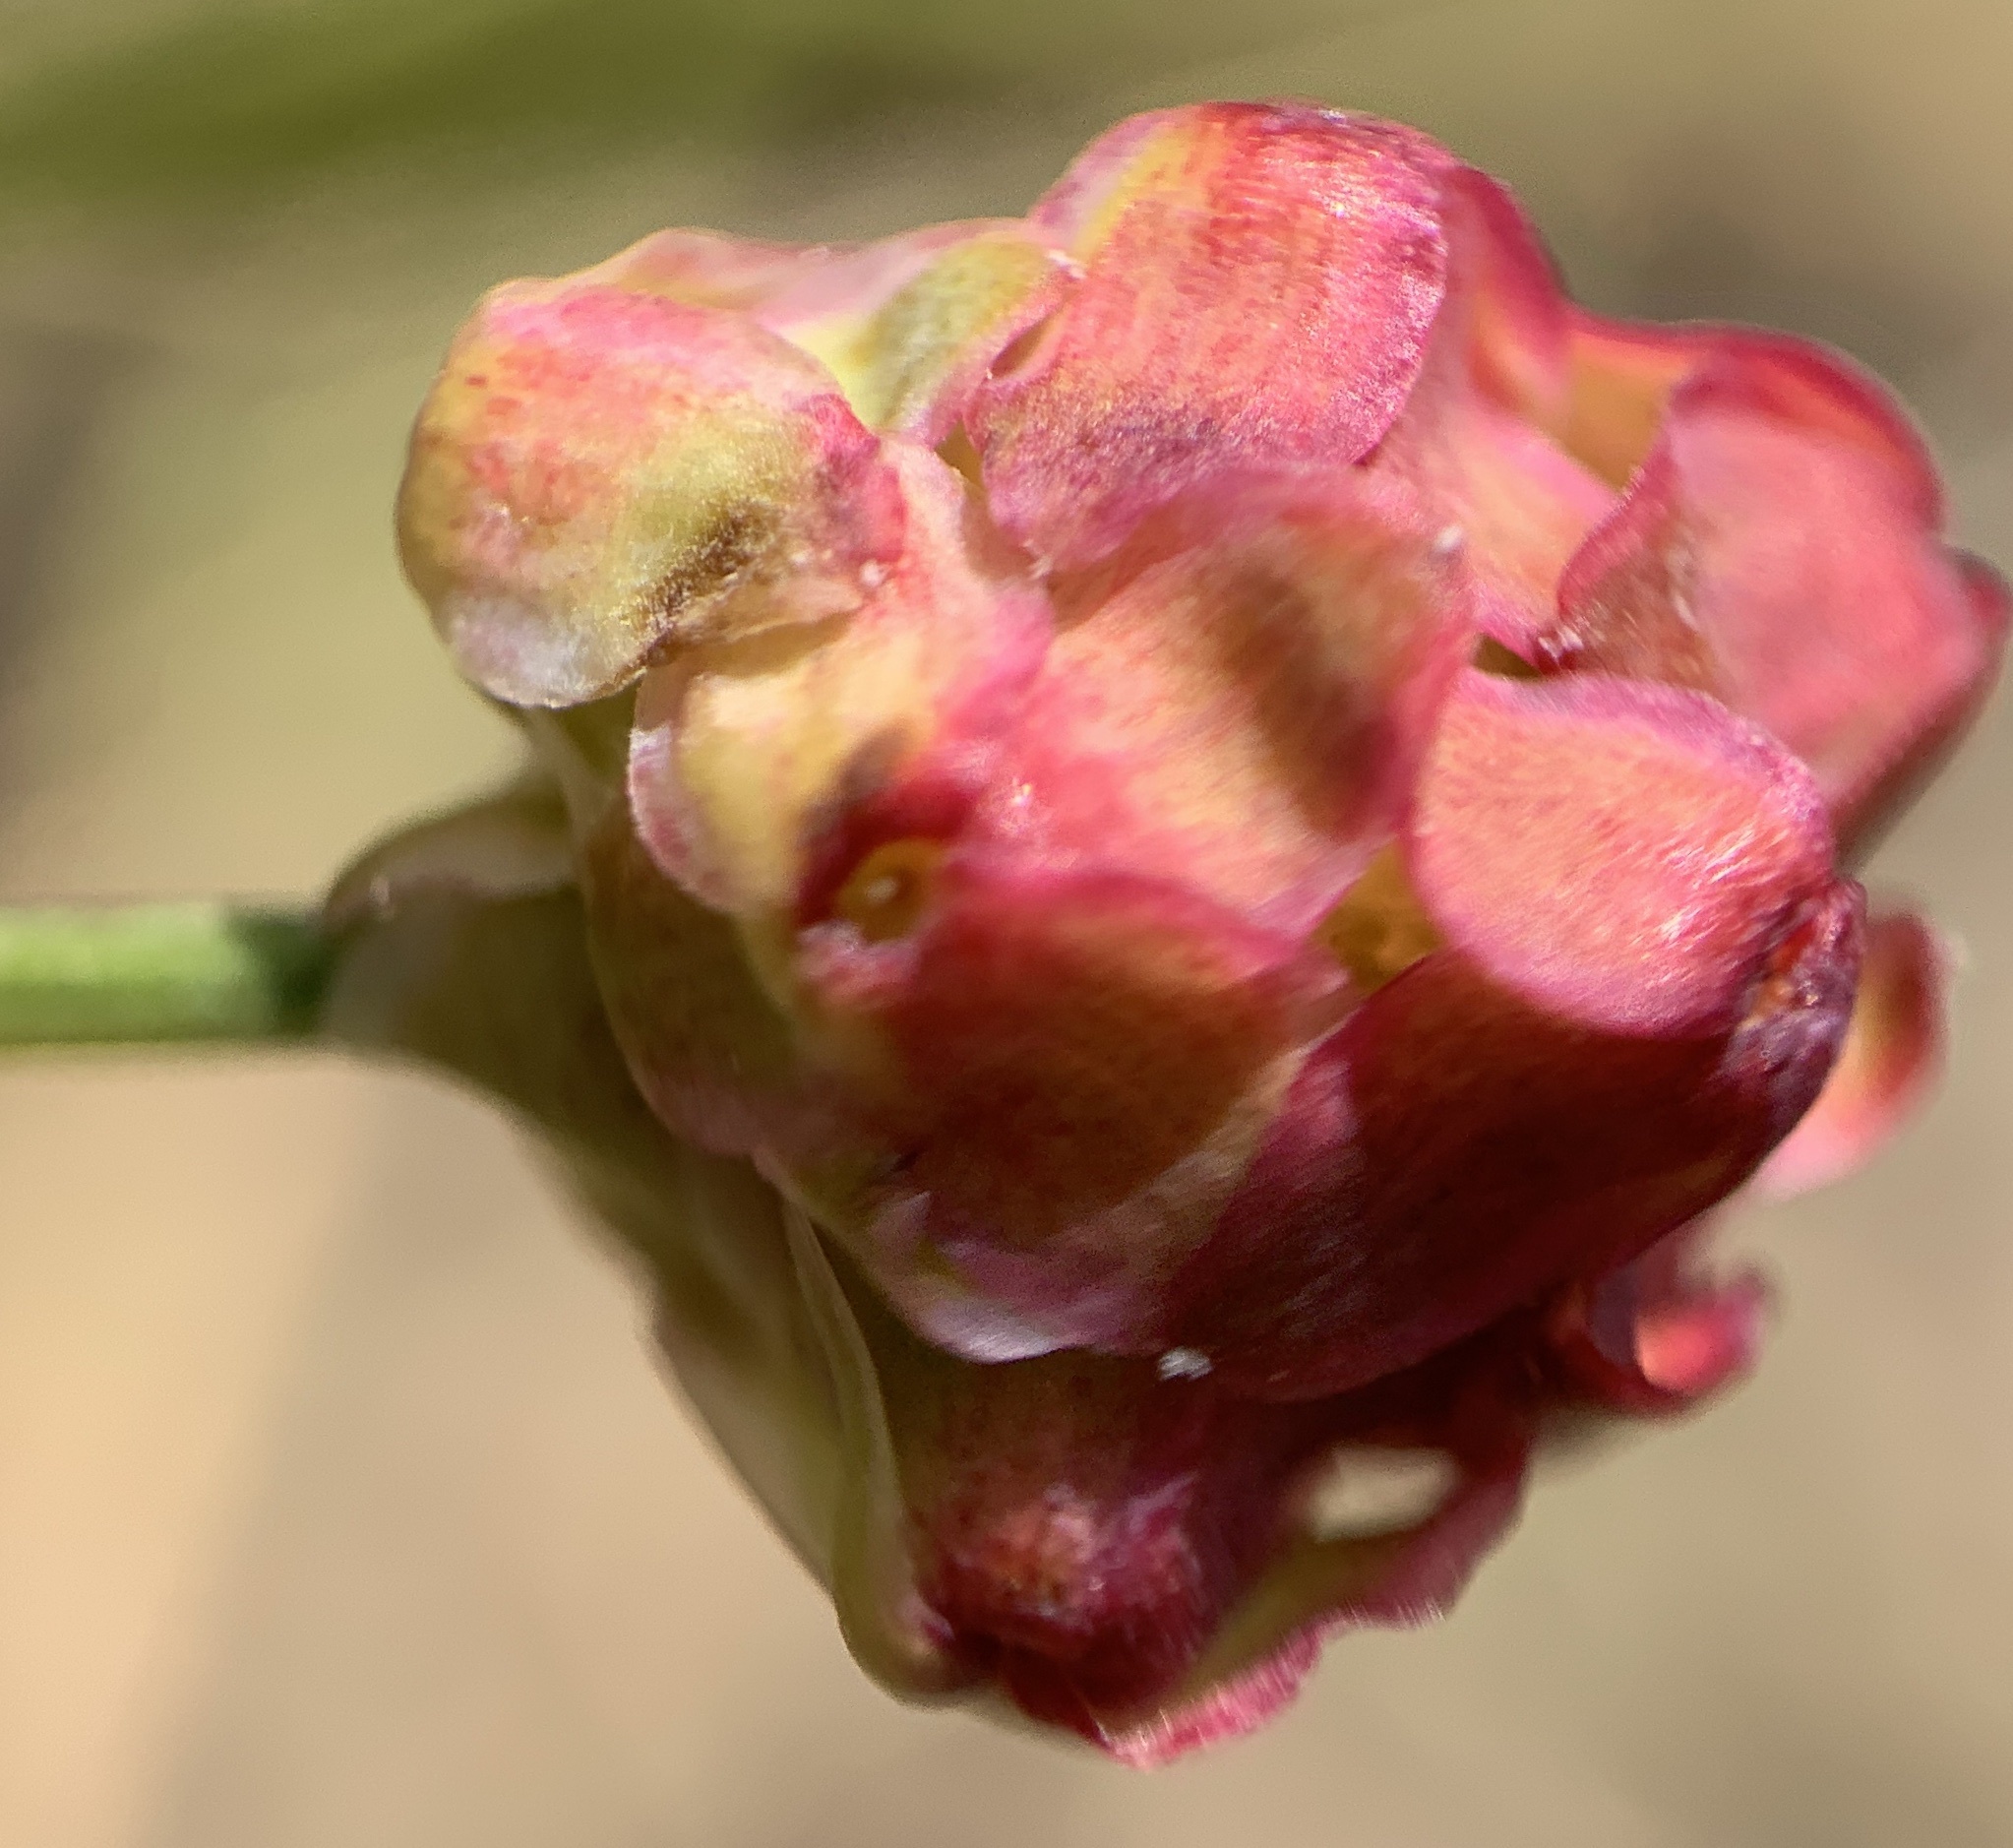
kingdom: Plantae
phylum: Tracheophyta
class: Magnoliopsida
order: Rosales
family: Rosaceae
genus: Poterium
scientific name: Poterium sanguisorba
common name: Salad burnet
